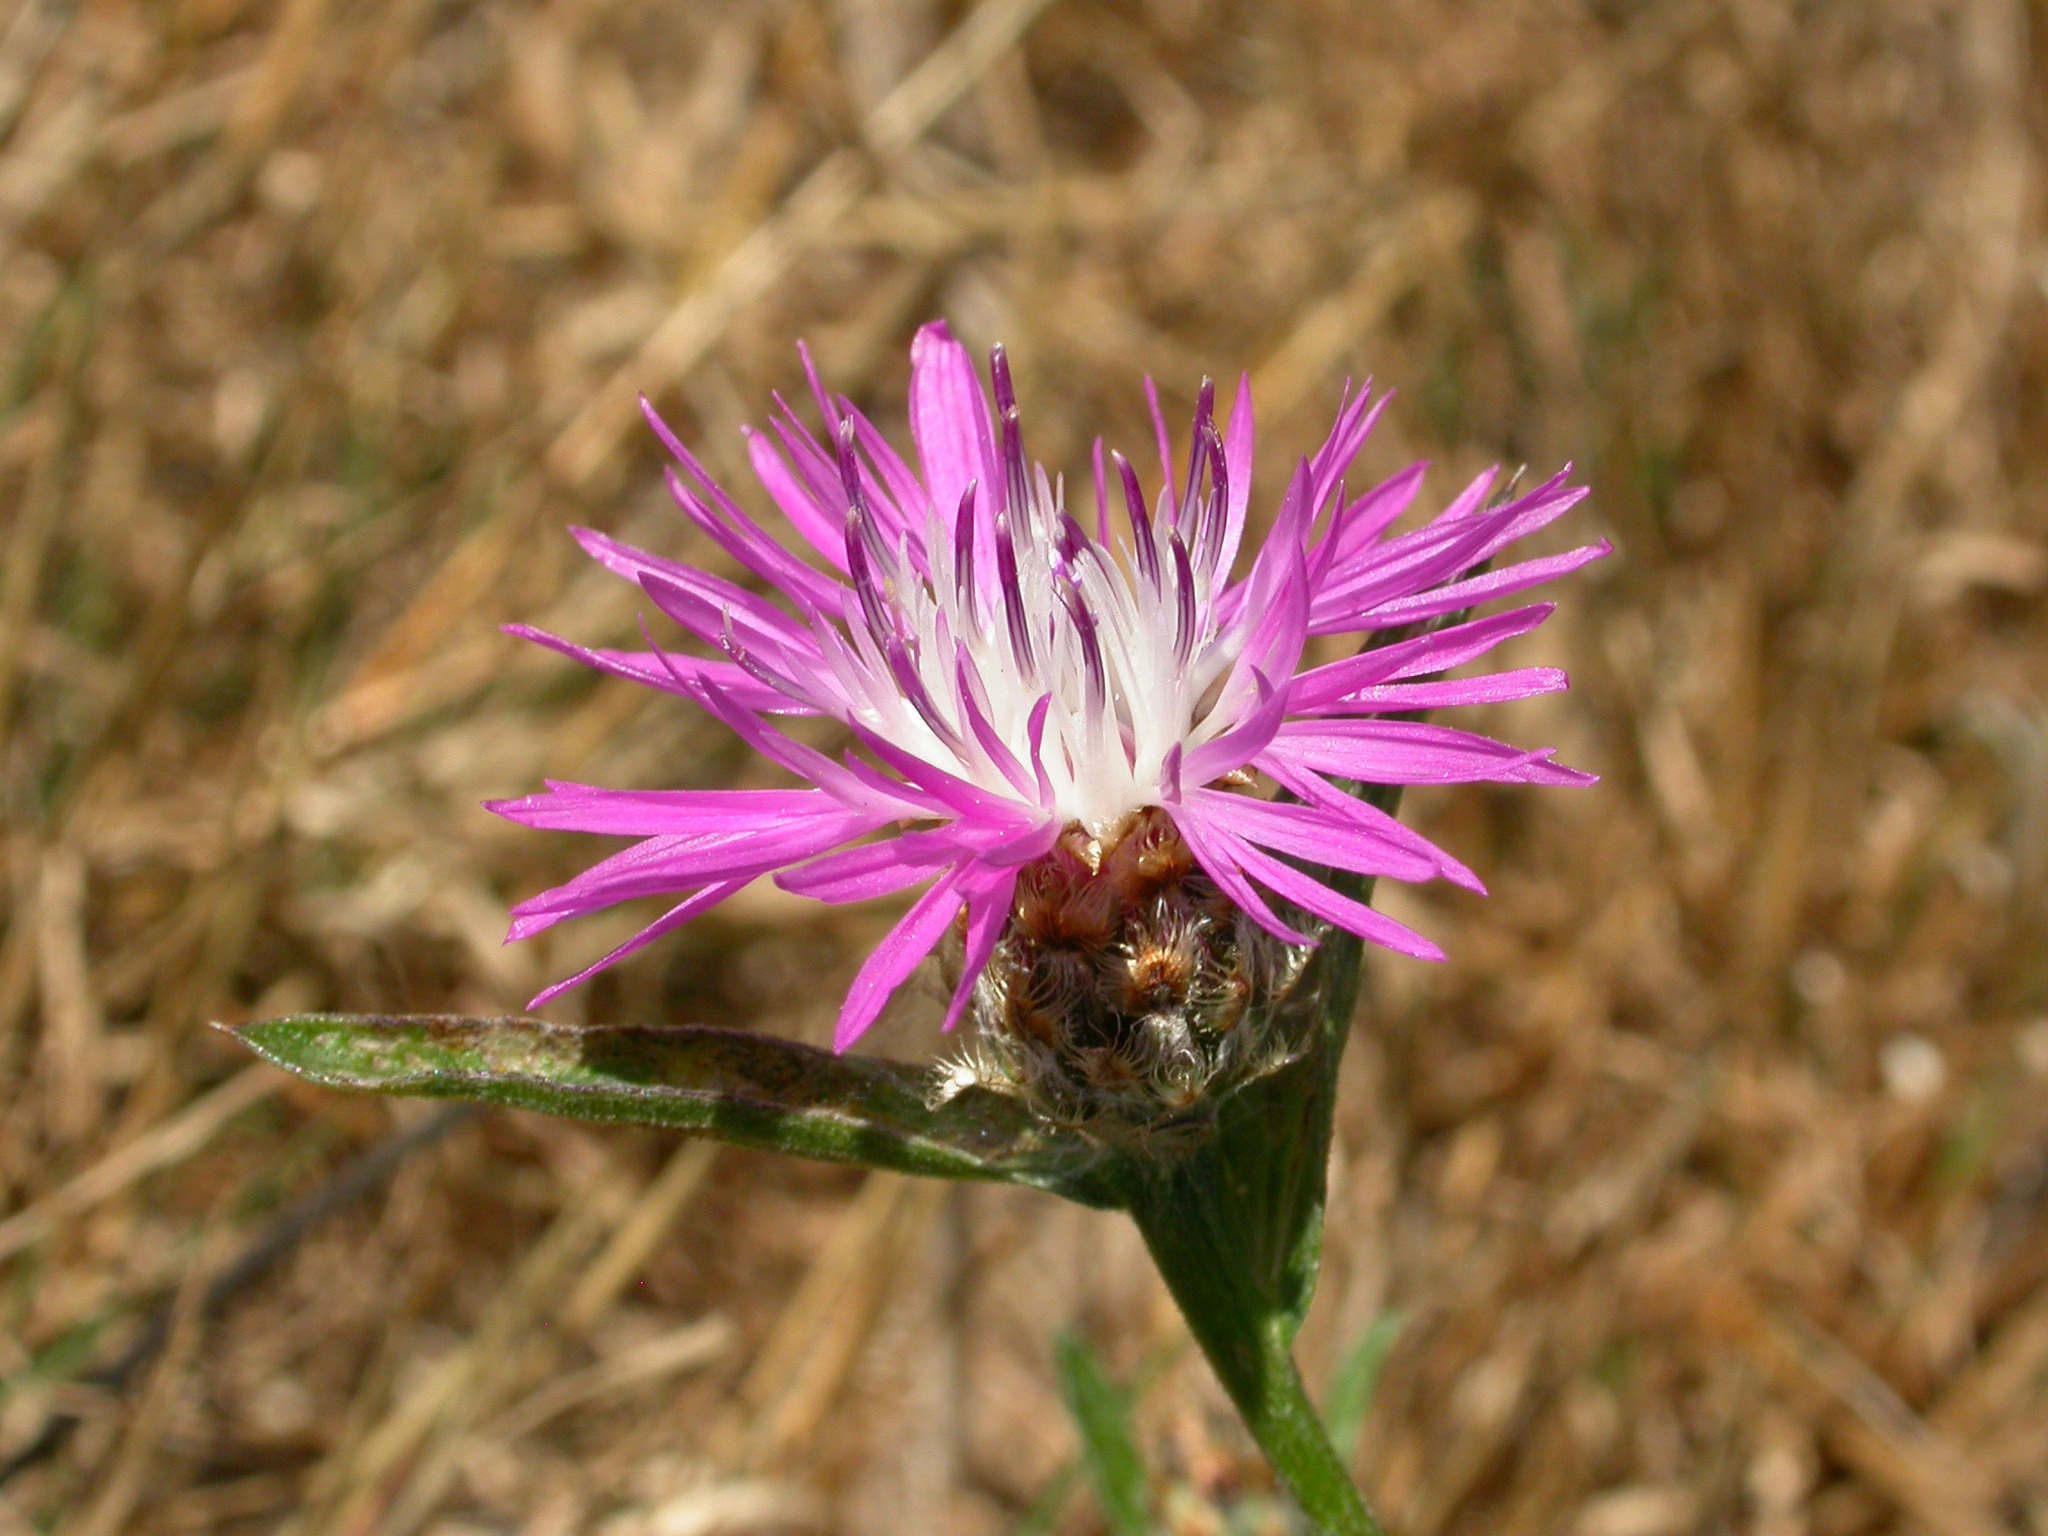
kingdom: Plantae
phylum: Tracheophyta
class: Magnoliopsida
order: Asterales
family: Asteraceae
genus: Centaurea
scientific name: Centaurea stoebe
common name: Spotted knapweed
